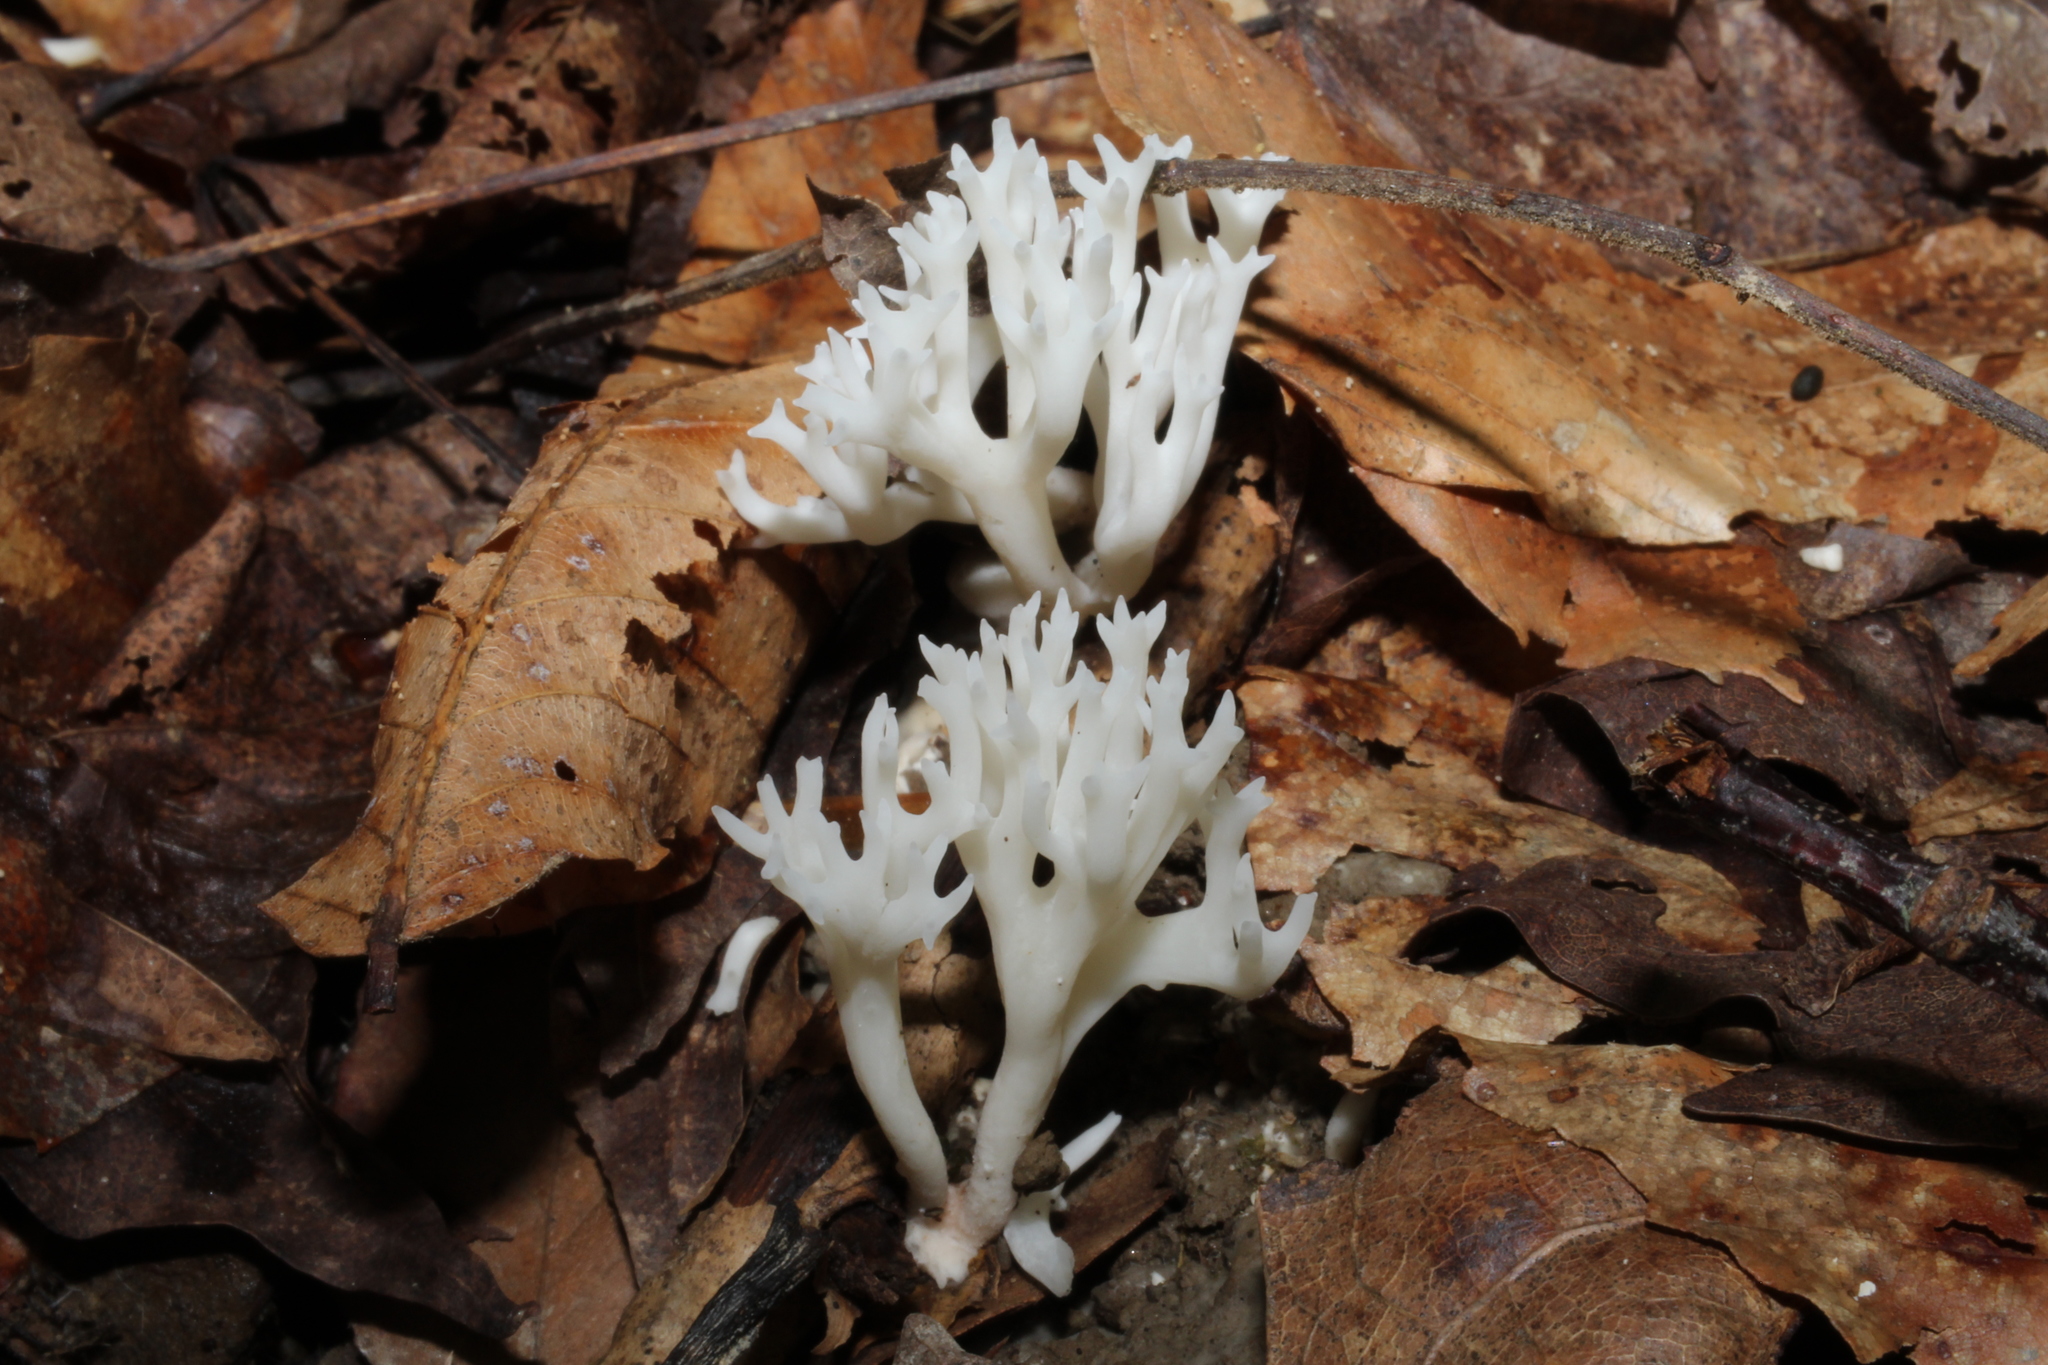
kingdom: Fungi
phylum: Basidiomycota
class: Agaricomycetes
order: Agaricales
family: Clavariaceae
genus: Ramariopsis
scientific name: Ramariopsis kunzei
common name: Ivory coral
